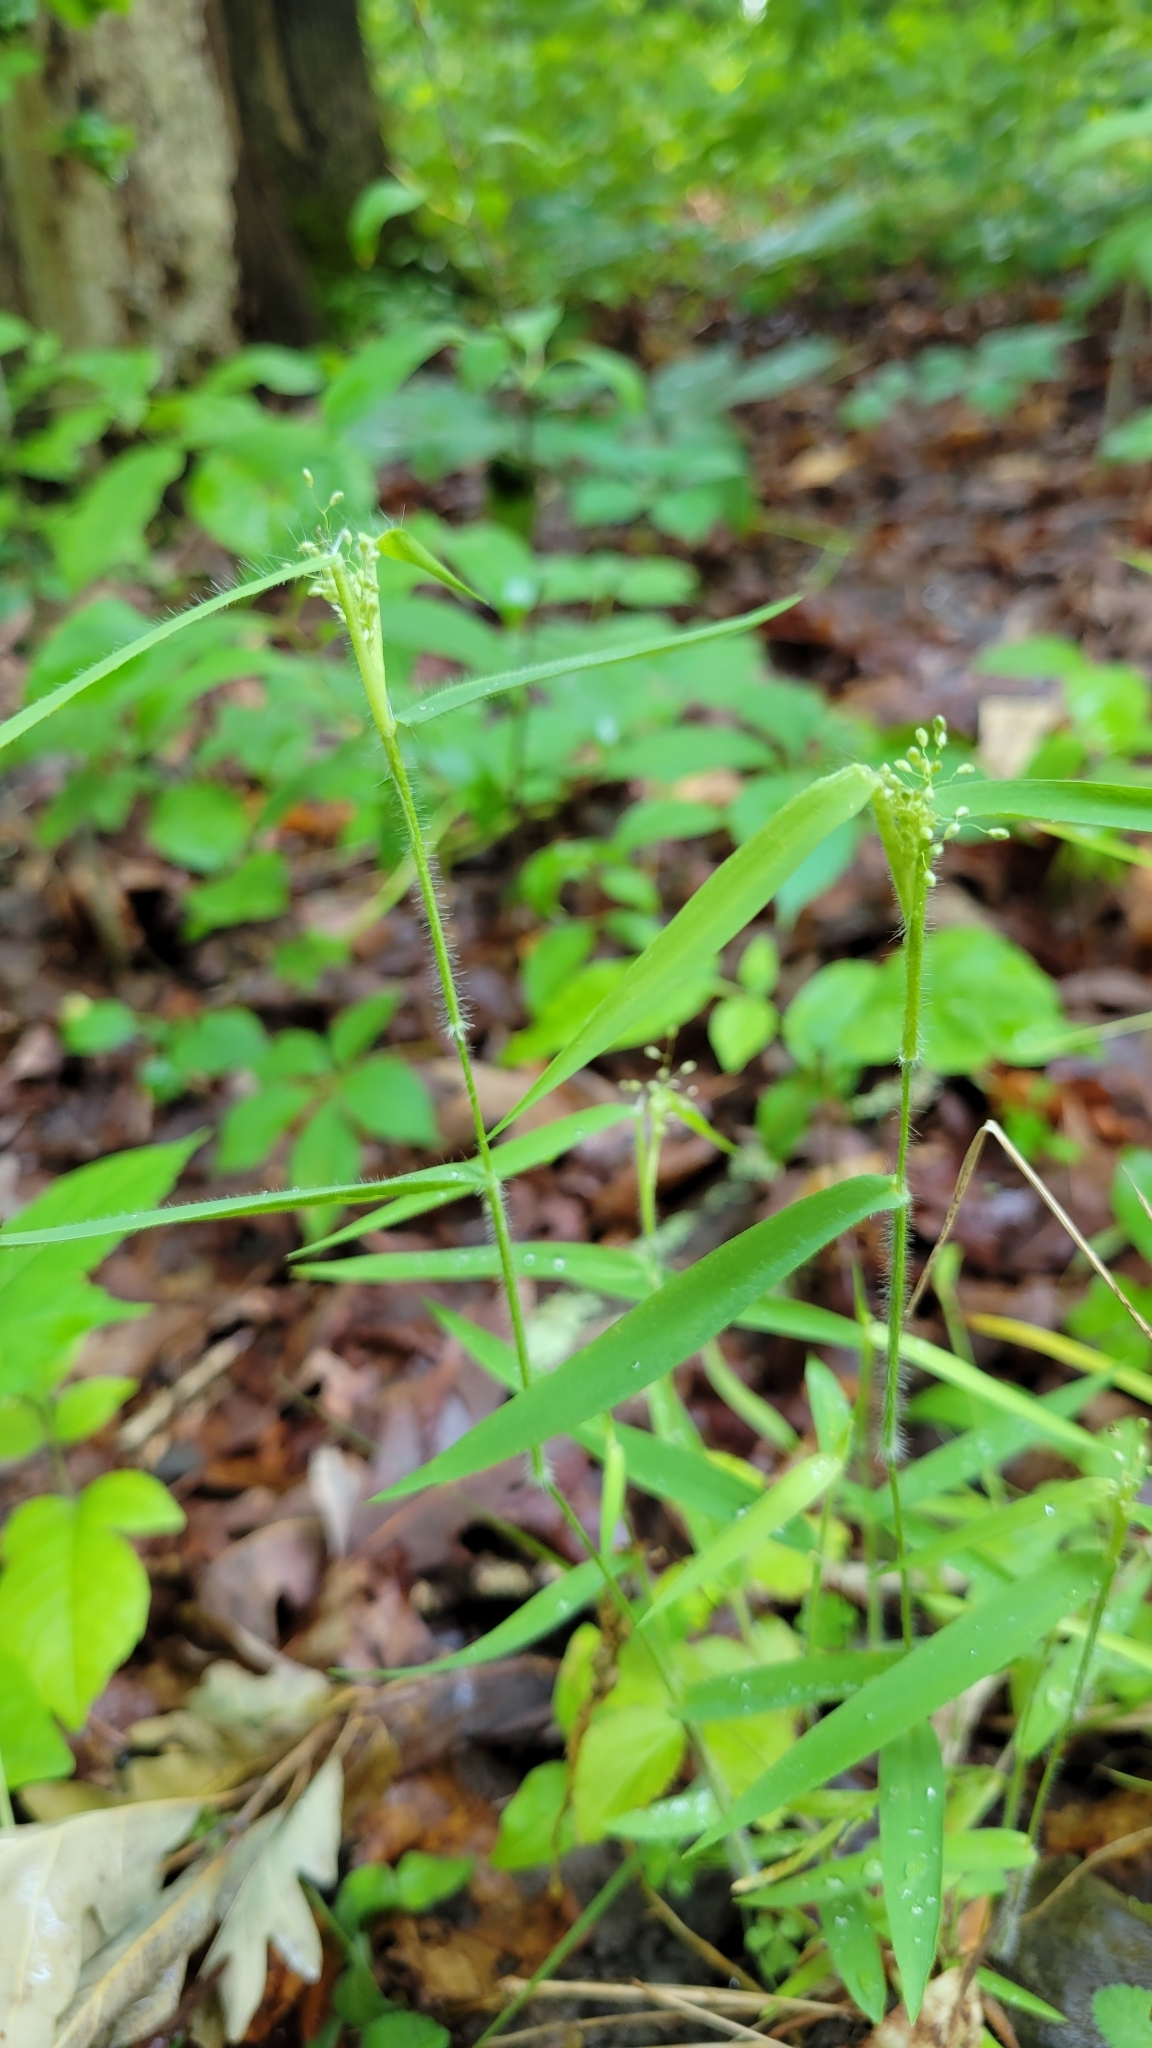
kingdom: Plantae
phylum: Tracheophyta
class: Liliopsida
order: Poales
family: Poaceae
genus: Dichanthelium
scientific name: Dichanthelium lanuginosum
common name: Woolly panicgrass
